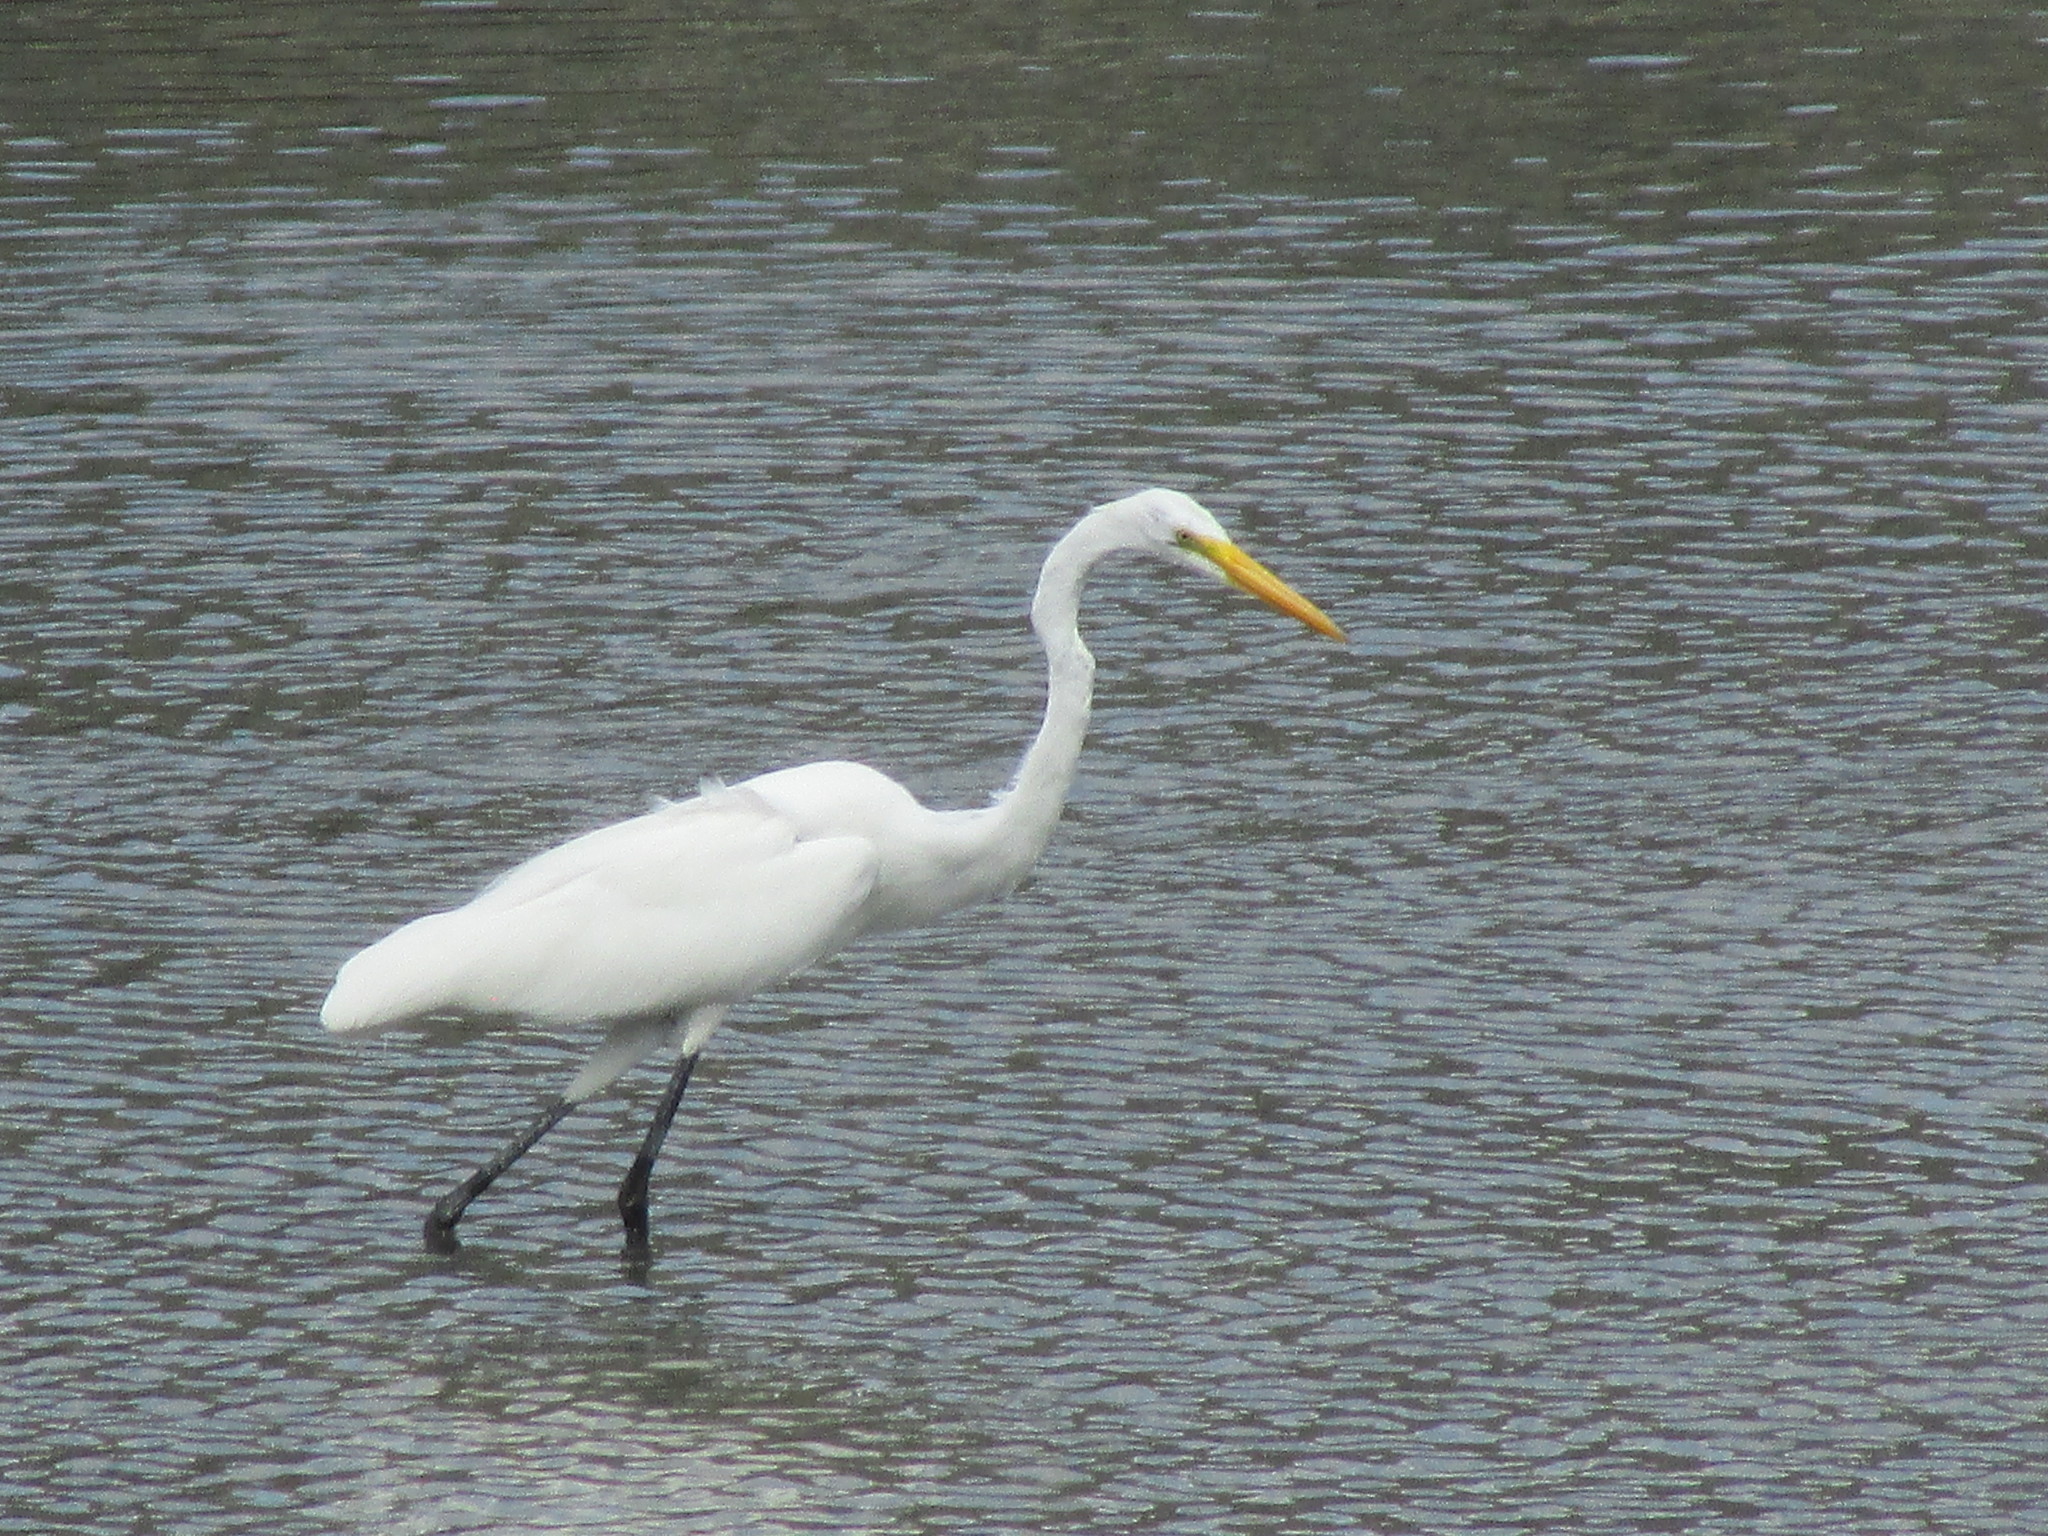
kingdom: Animalia
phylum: Chordata
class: Aves
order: Pelecaniformes
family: Ardeidae
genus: Ardea
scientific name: Ardea alba
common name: Great egret
